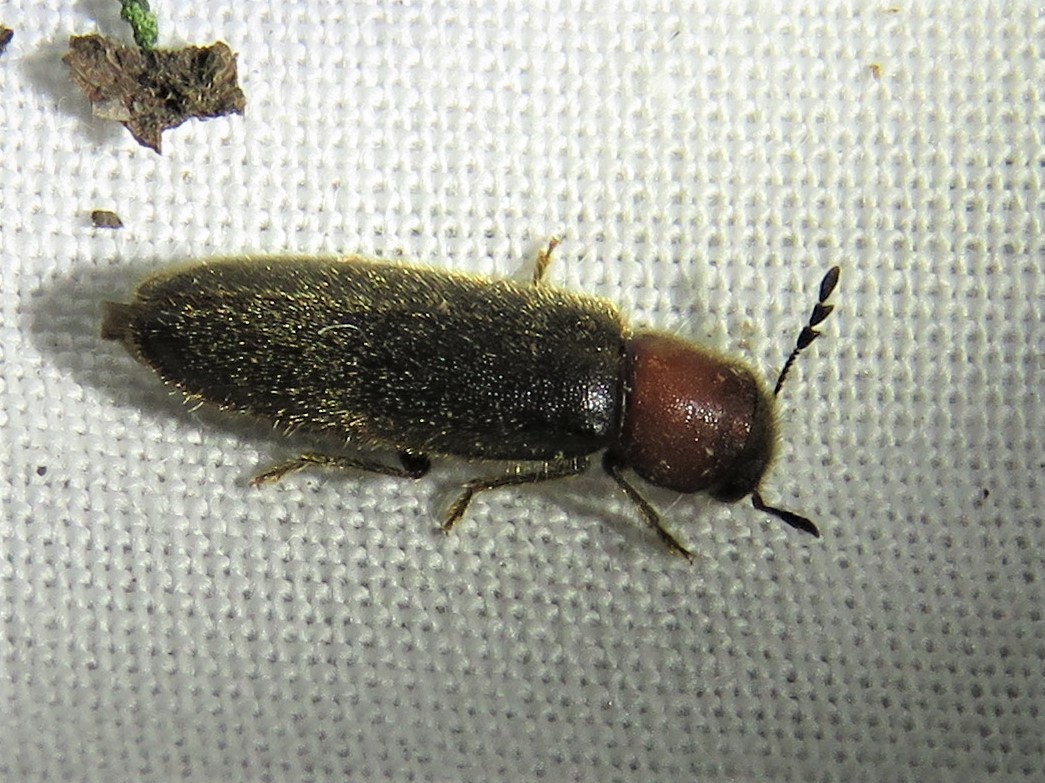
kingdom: Animalia
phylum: Arthropoda
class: Insecta
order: Coleoptera
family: Cleridae
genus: Neorthopleura
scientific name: Neorthopleura thoracica
